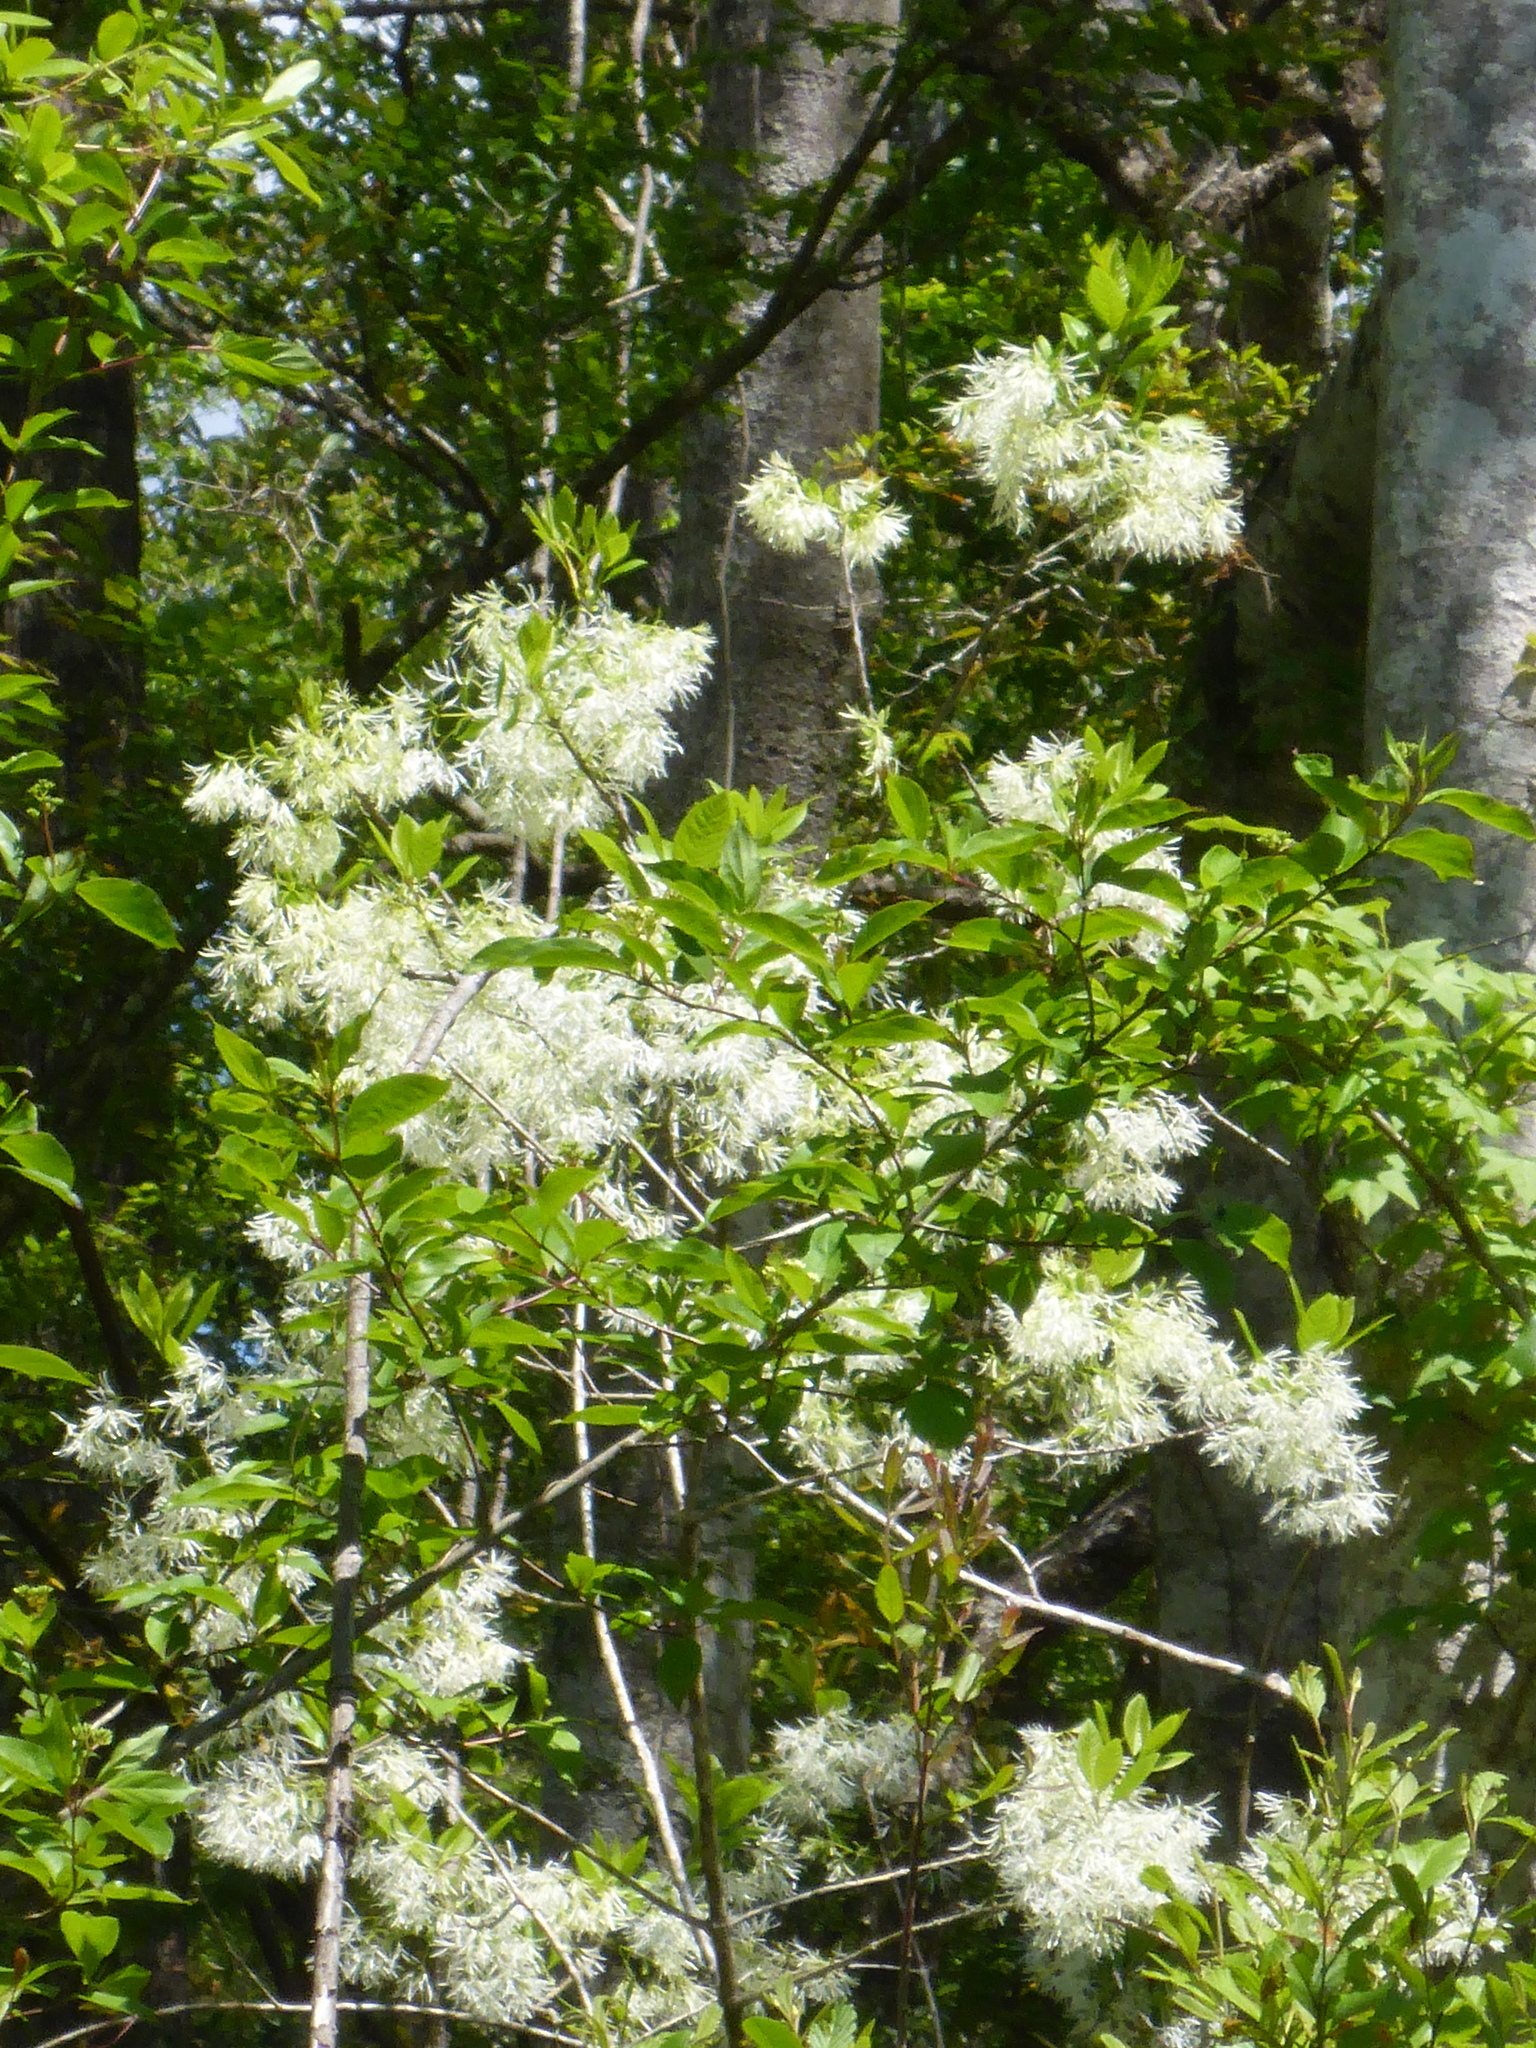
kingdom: Plantae
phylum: Tracheophyta
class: Magnoliopsida
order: Lamiales
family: Oleaceae
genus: Chionanthus
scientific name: Chionanthus virginicus
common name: American fringetree
